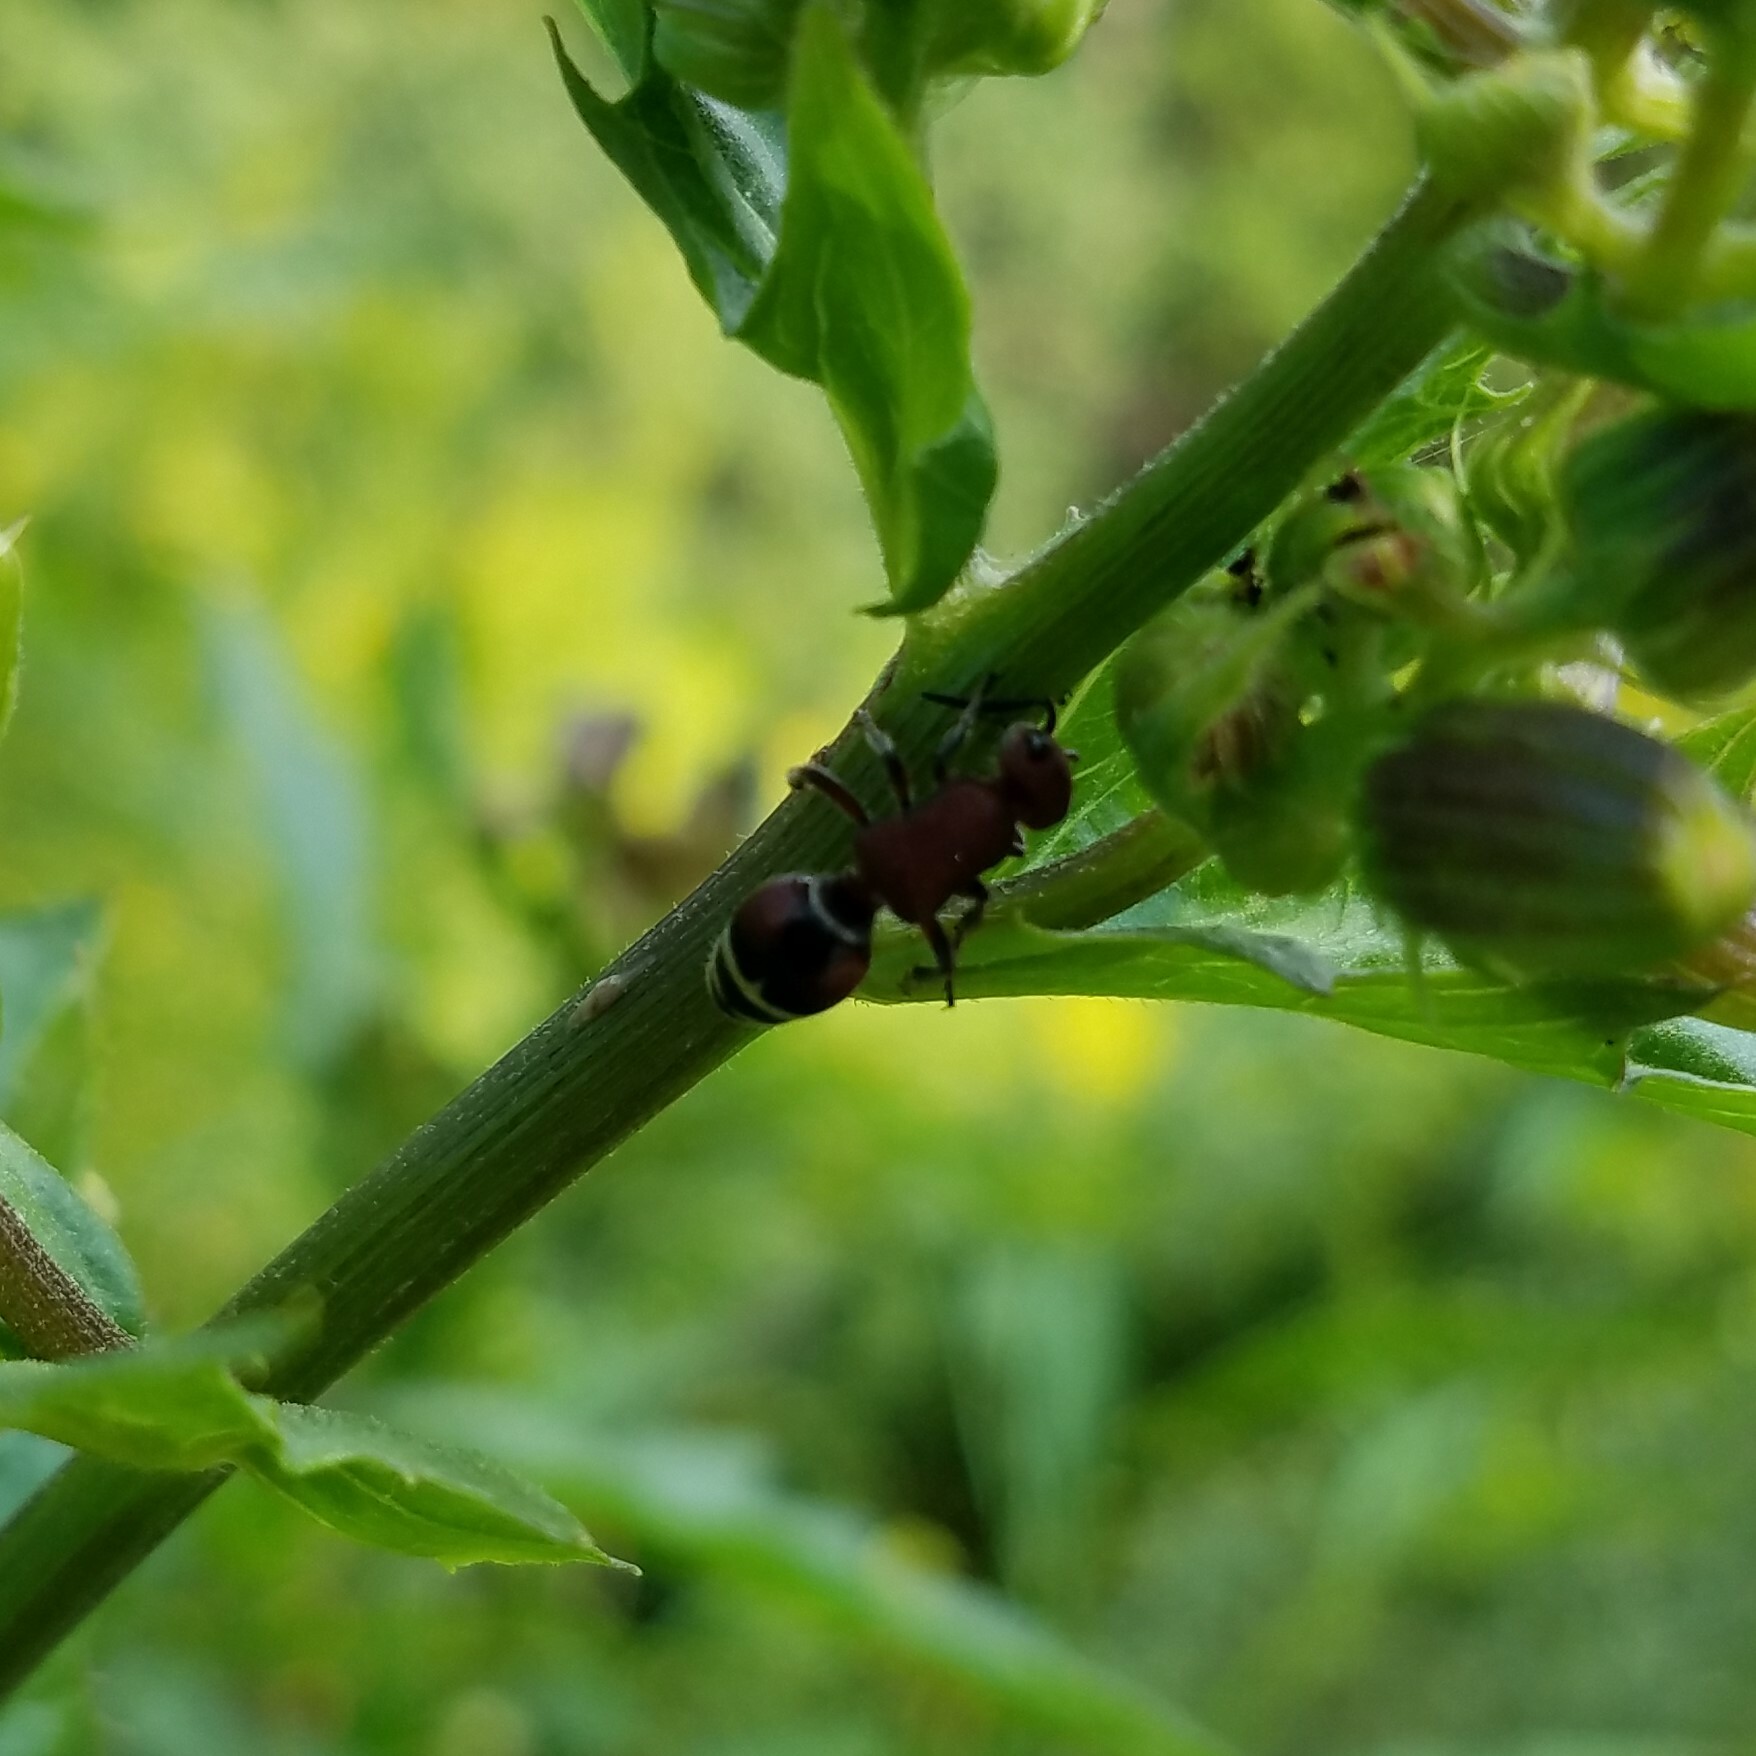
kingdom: Animalia
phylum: Arthropoda
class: Insecta
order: Hymenoptera
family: Mutillidae
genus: Timulla
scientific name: Timulla
